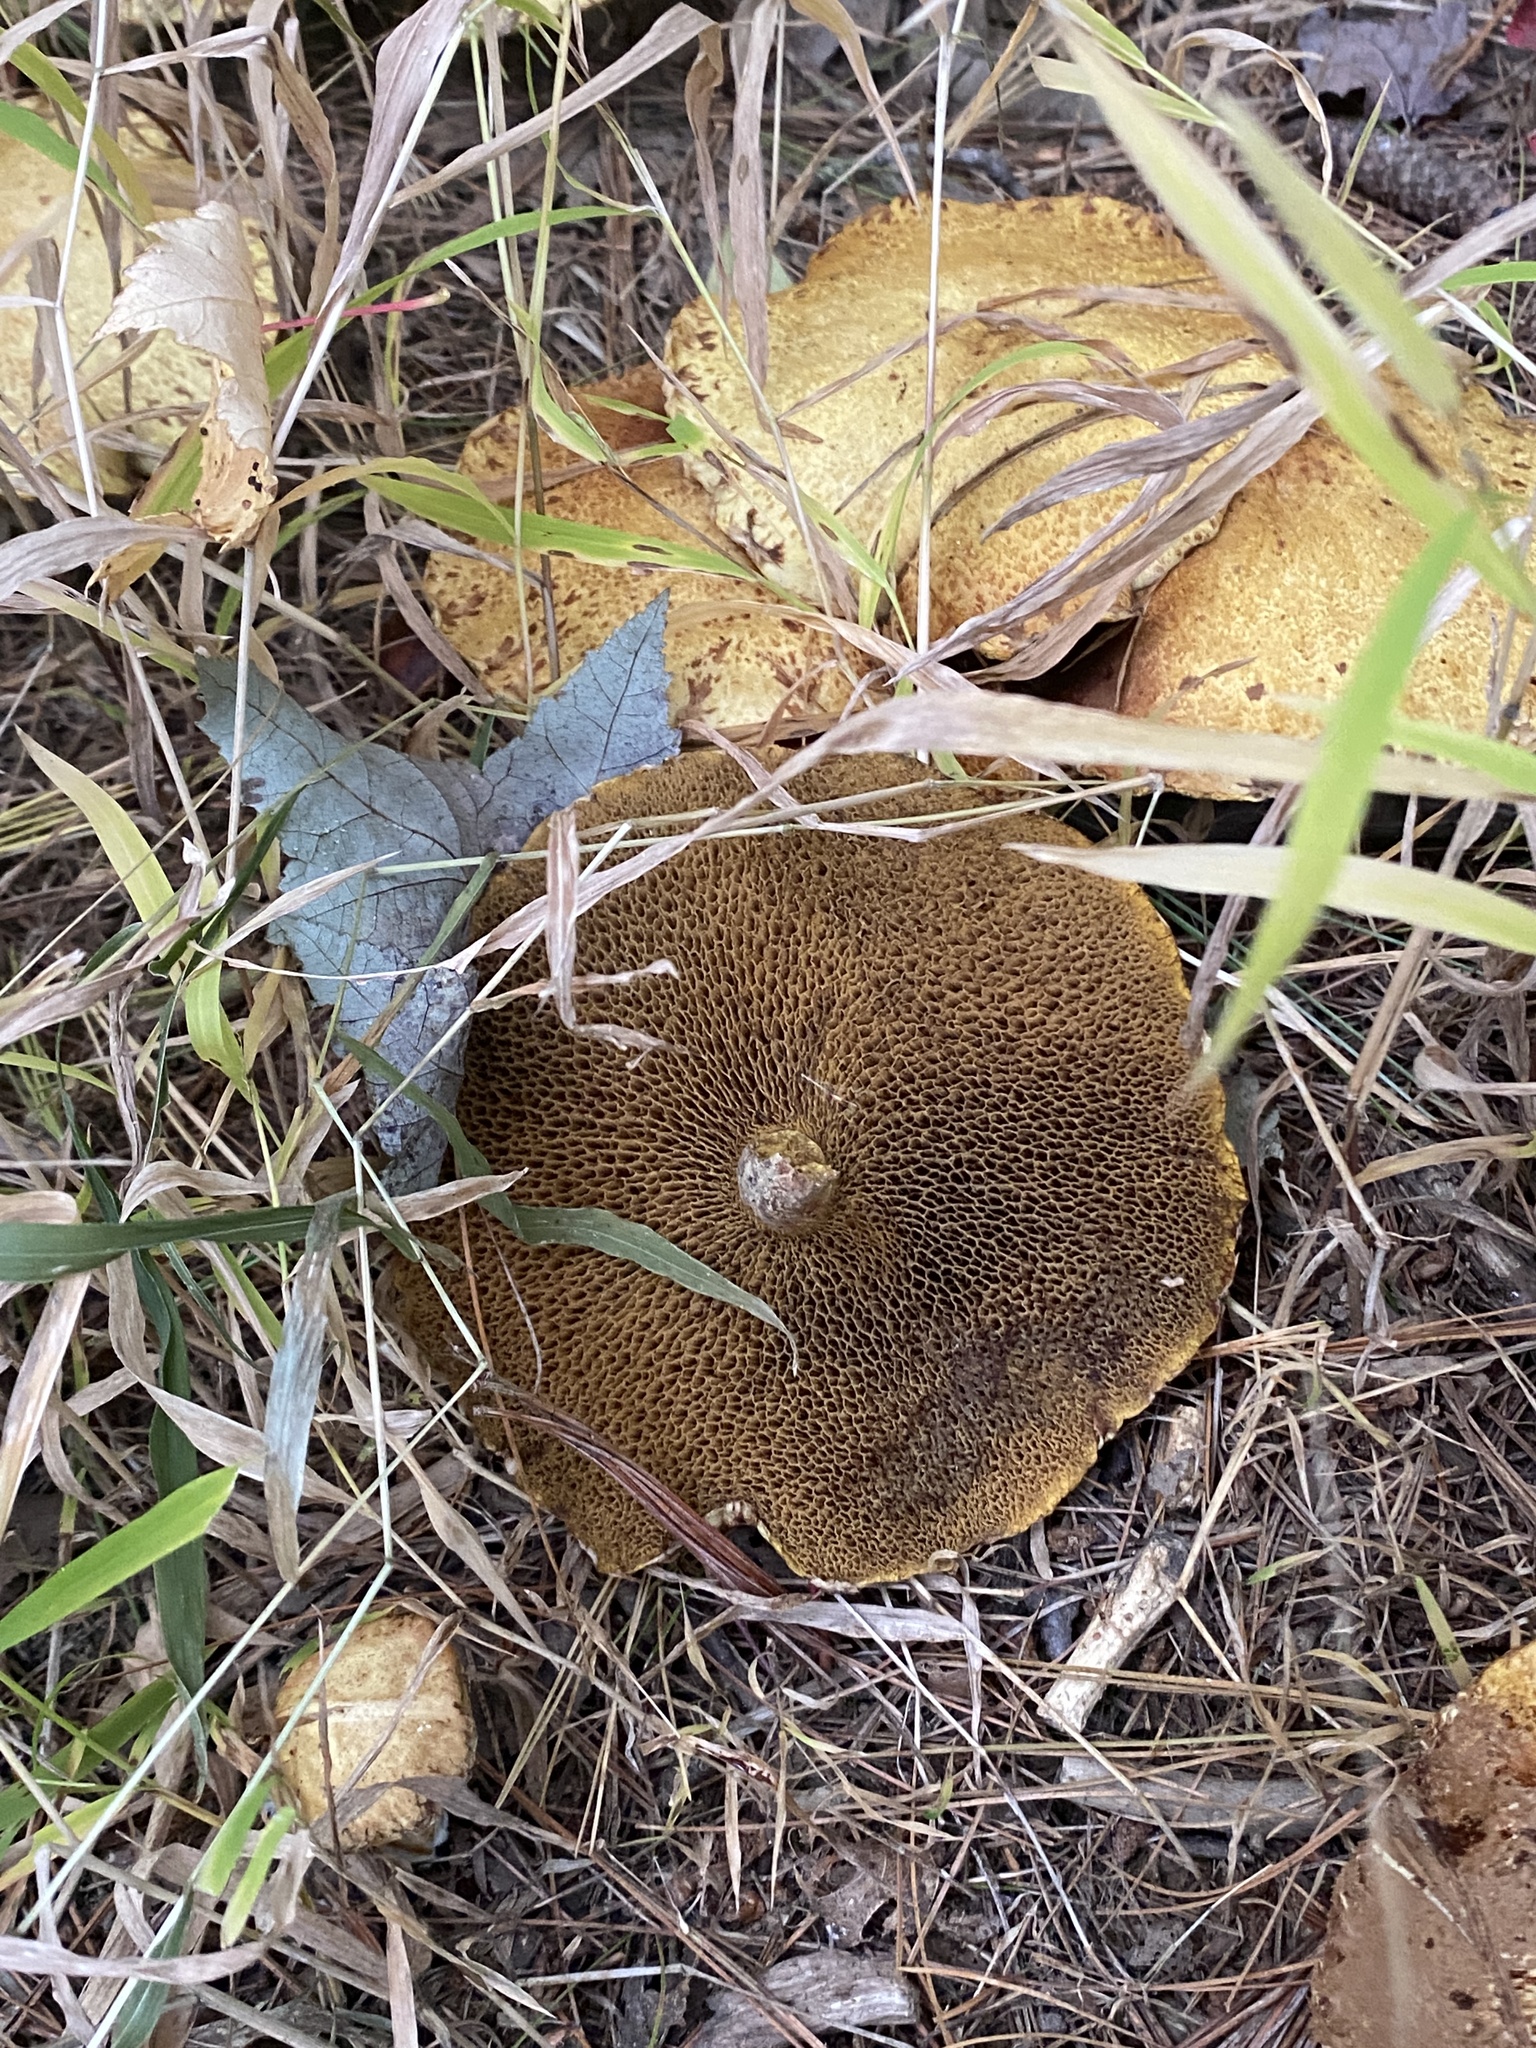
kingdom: Fungi
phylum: Basidiomycota
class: Agaricomycetes
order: Boletales
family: Suillaceae
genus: Suillus
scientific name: Suillus americanus
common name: Chicken fat mushroom
